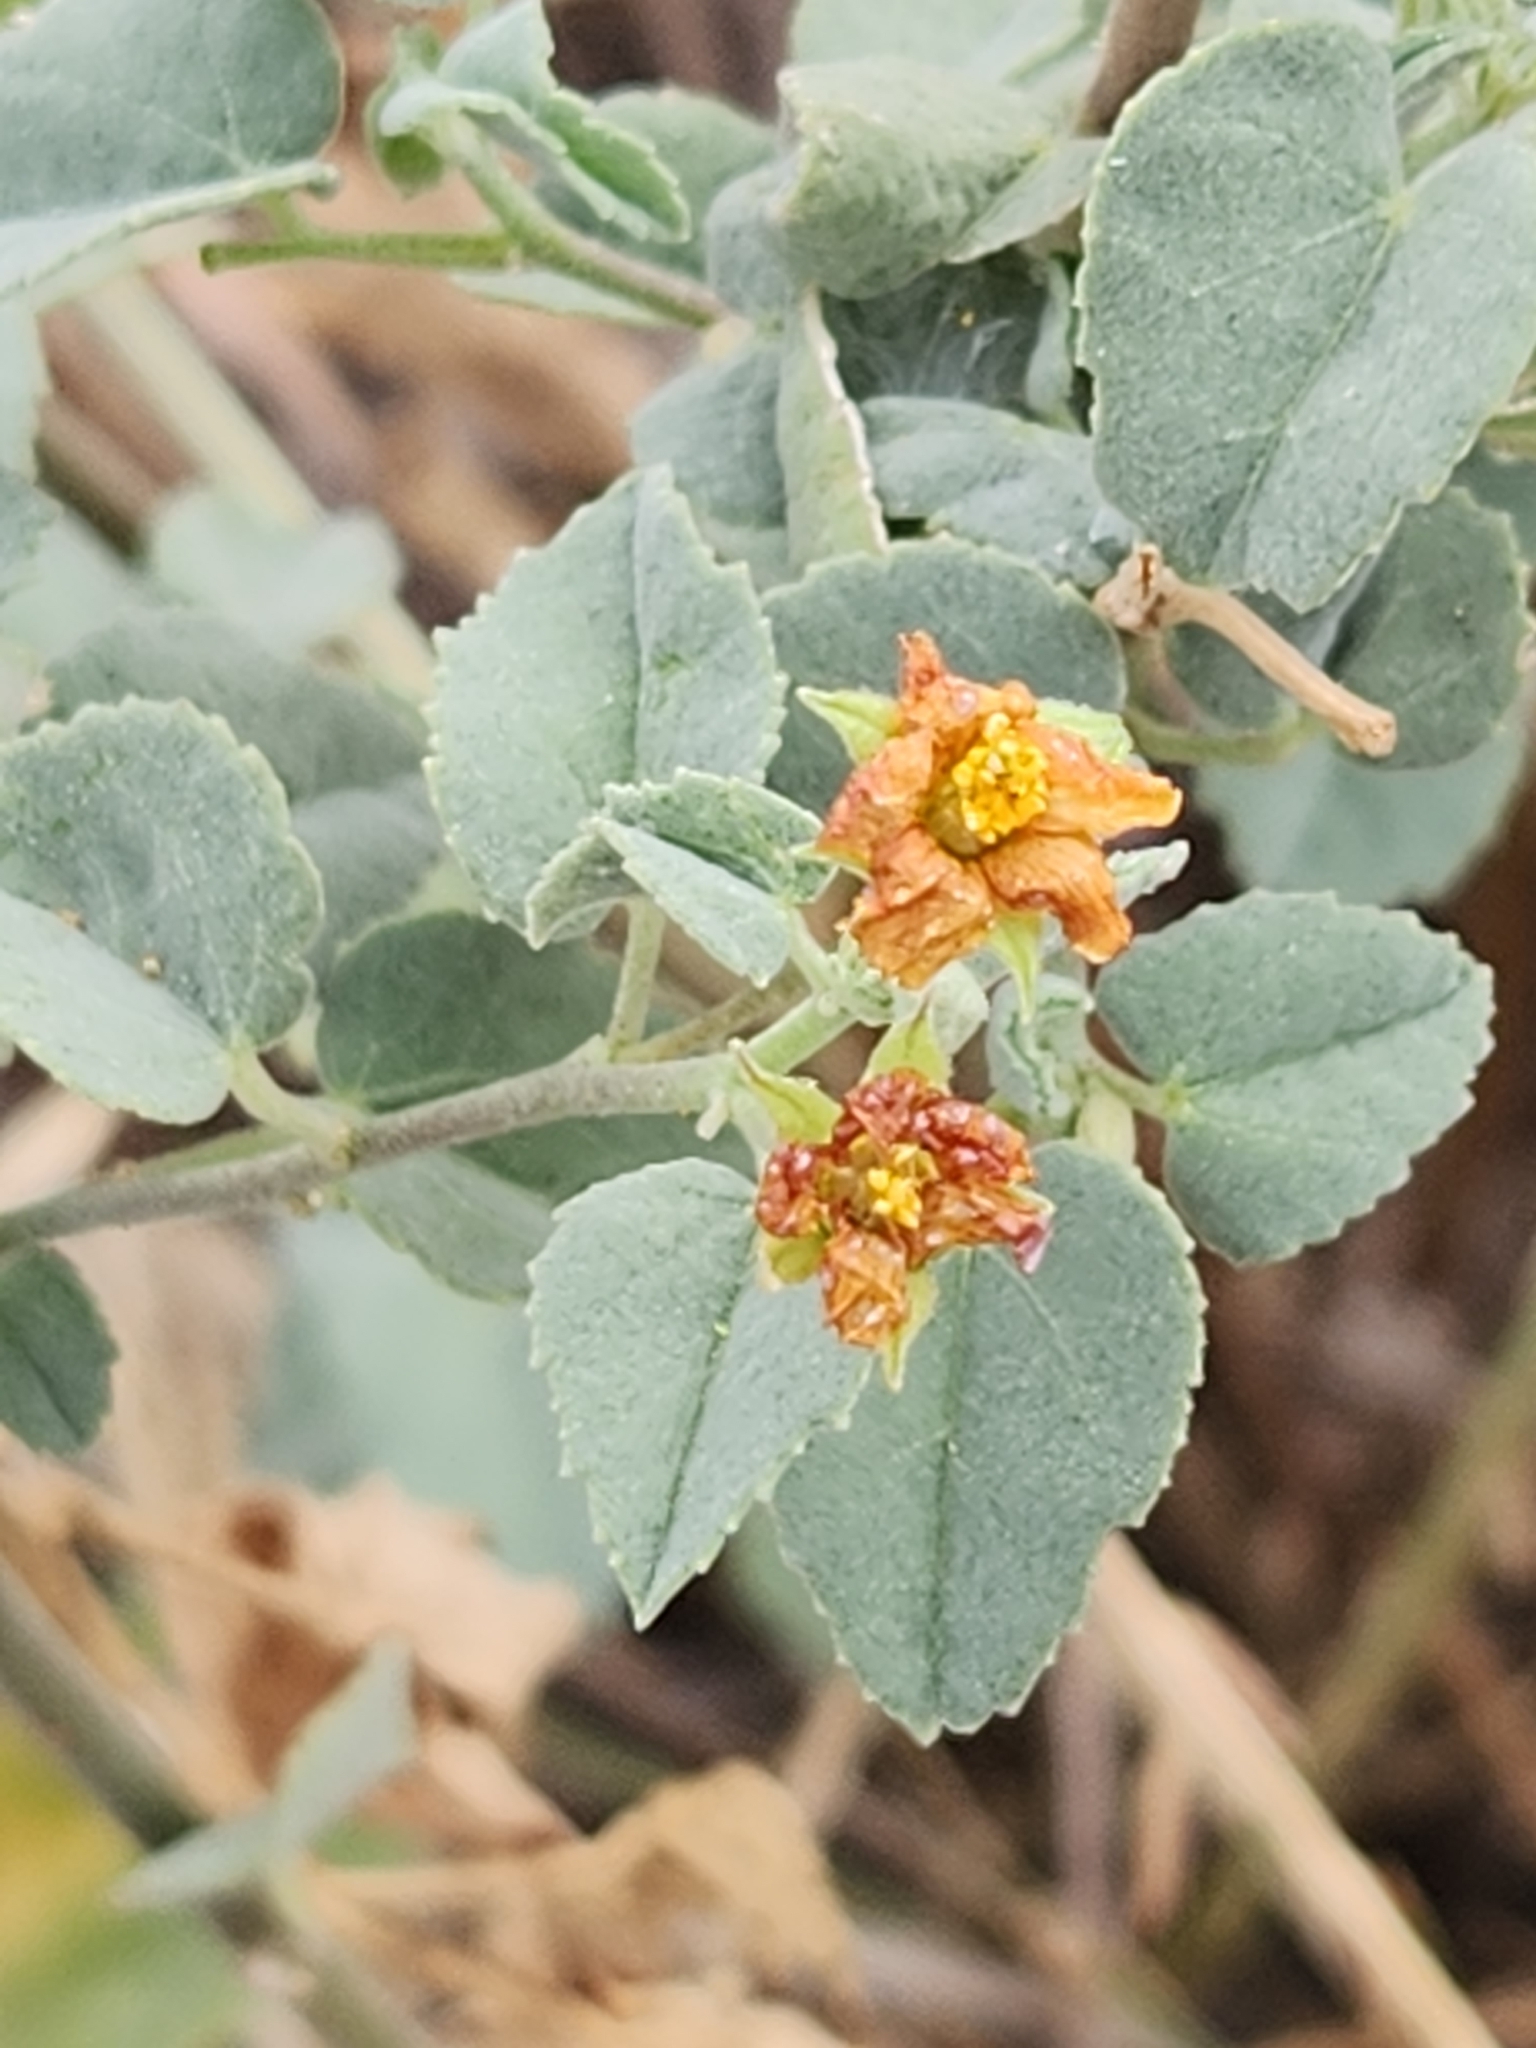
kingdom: Plantae
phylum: Tracheophyta
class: Magnoliopsida
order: Malvales
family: Malvaceae
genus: Abutilon
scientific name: Abutilon fruticosum
